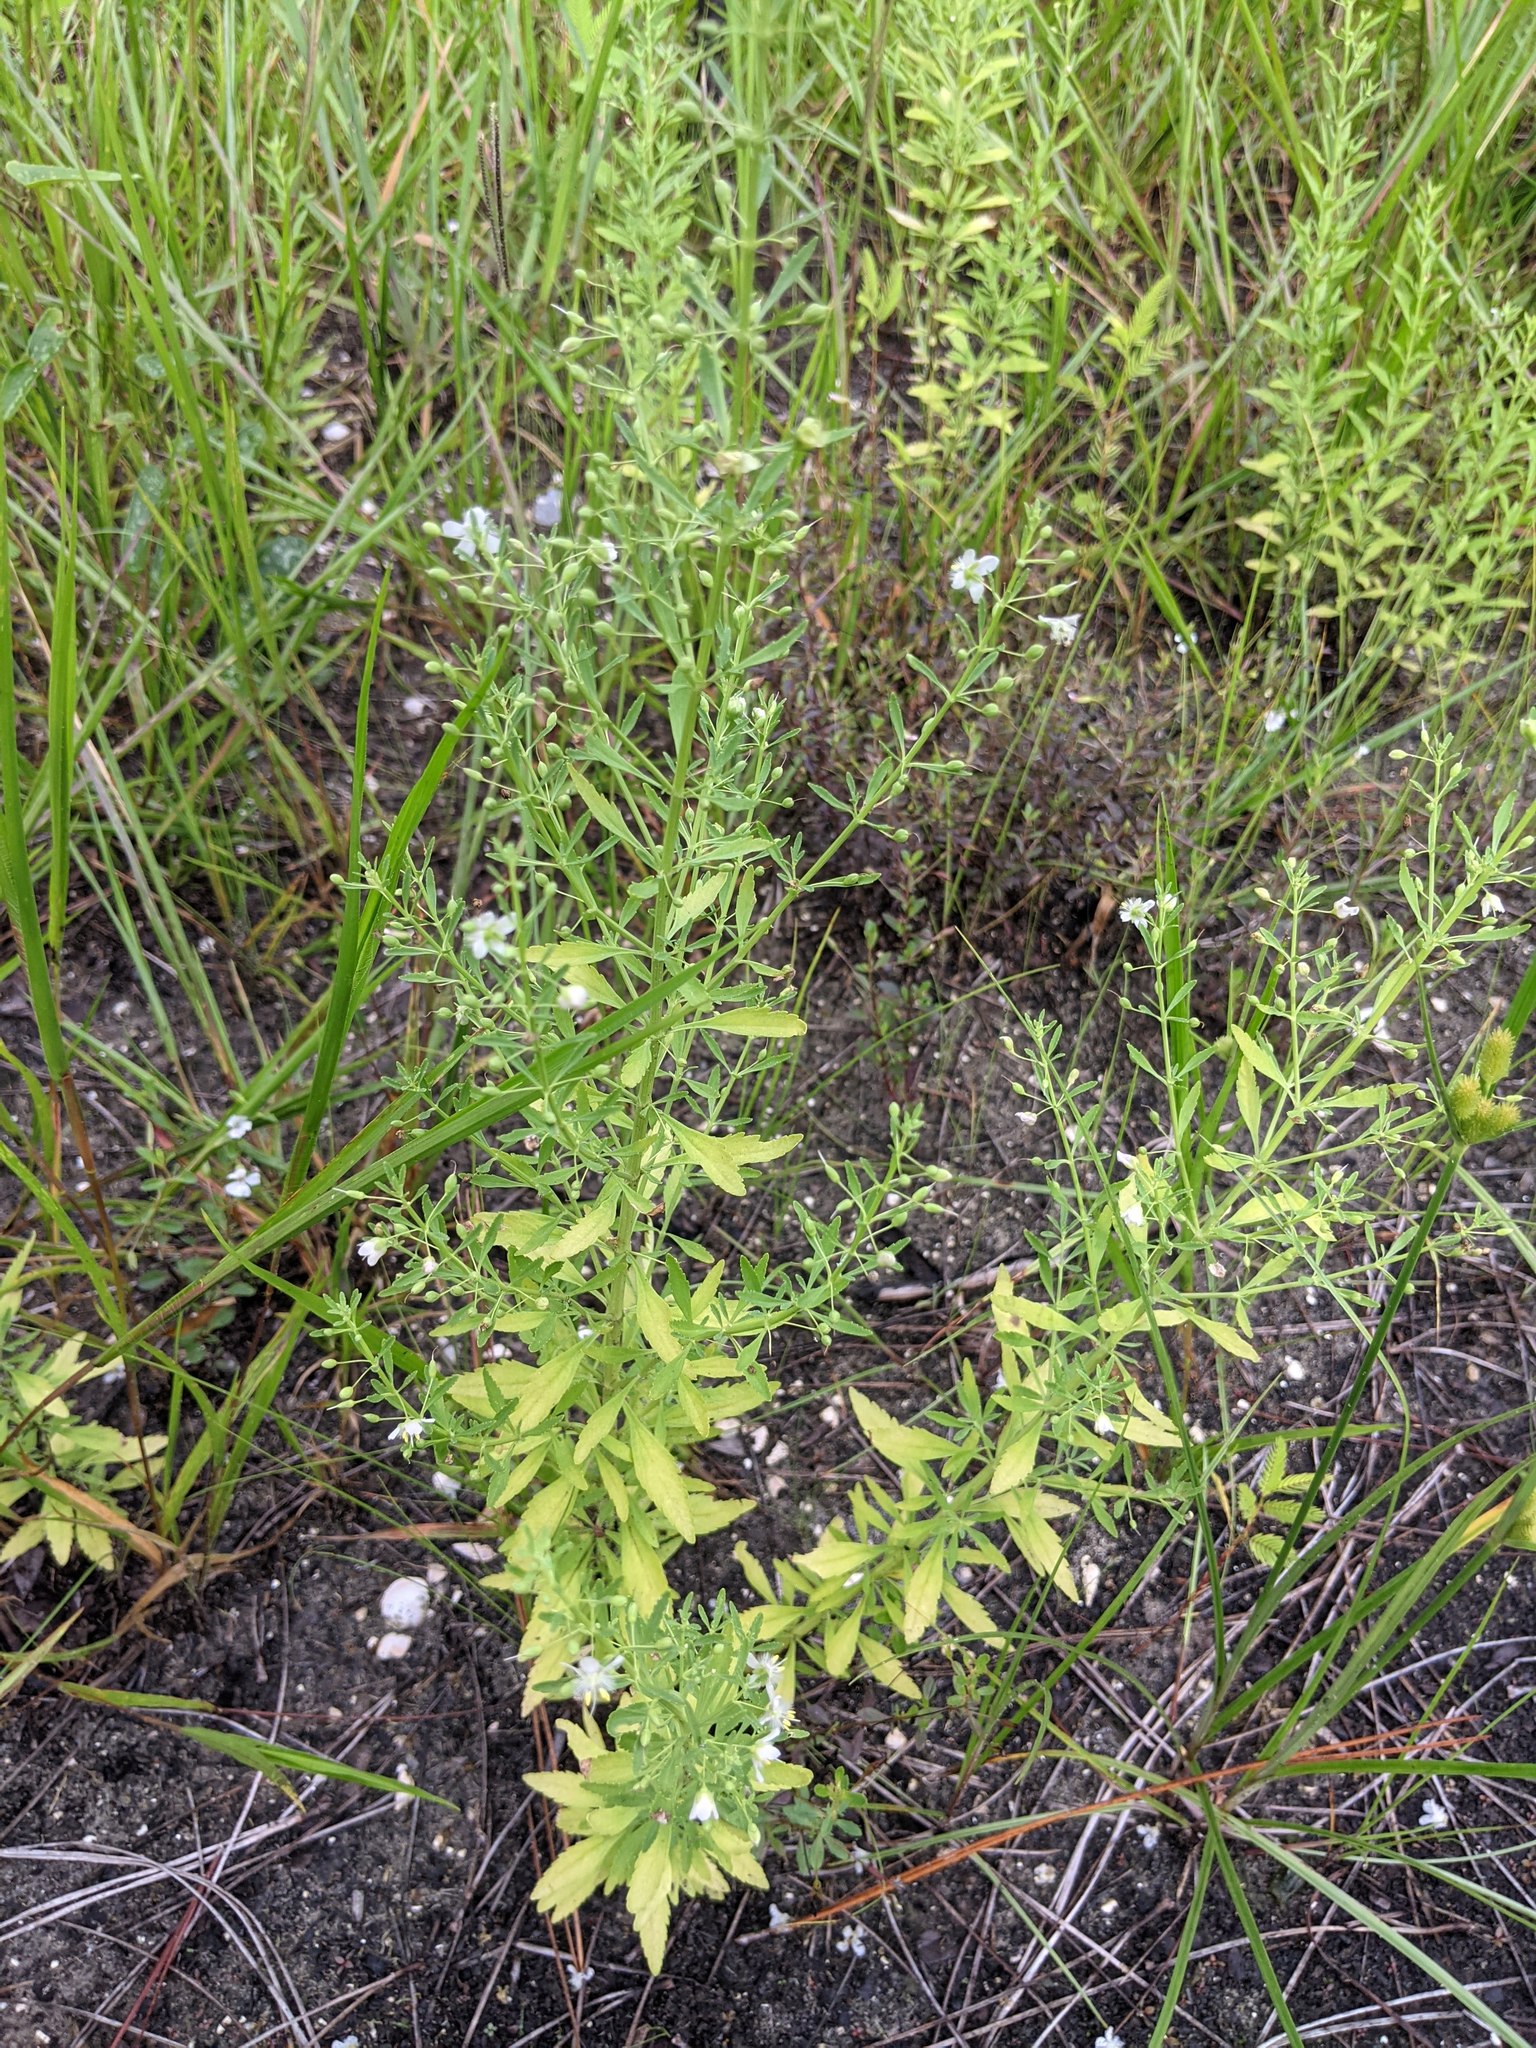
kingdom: Plantae
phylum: Tracheophyta
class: Magnoliopsida
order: Lamiales
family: Plantaginaceae
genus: Scoparia
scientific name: Scoparia dulcis
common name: Scoparia-weed
